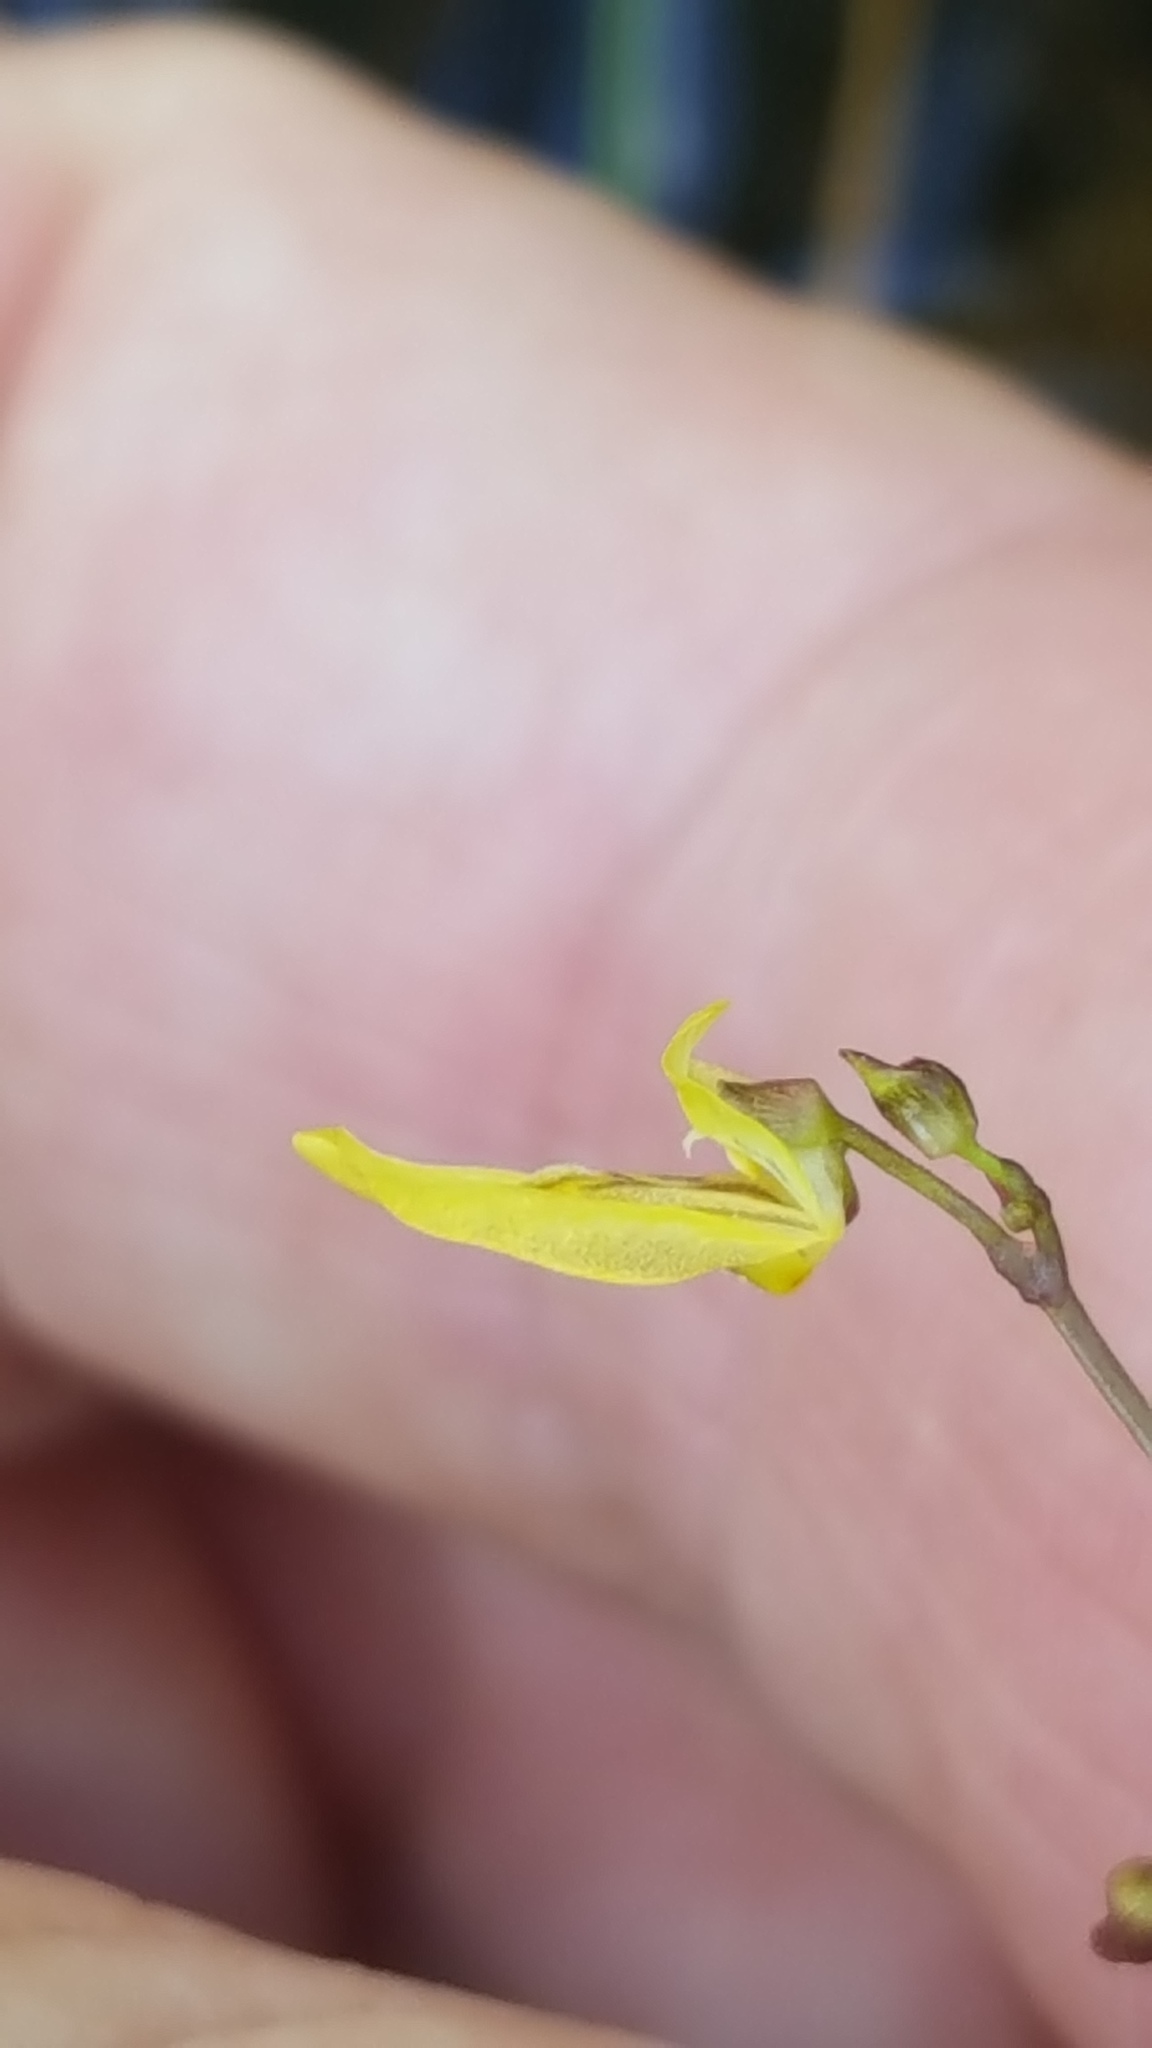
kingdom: Plantae
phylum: Tracheophyta
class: Magnoliopsida
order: Lamiales
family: Lentibulariaceae
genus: Utricularia
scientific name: Utricularia minor
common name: Lesser bladderwort
